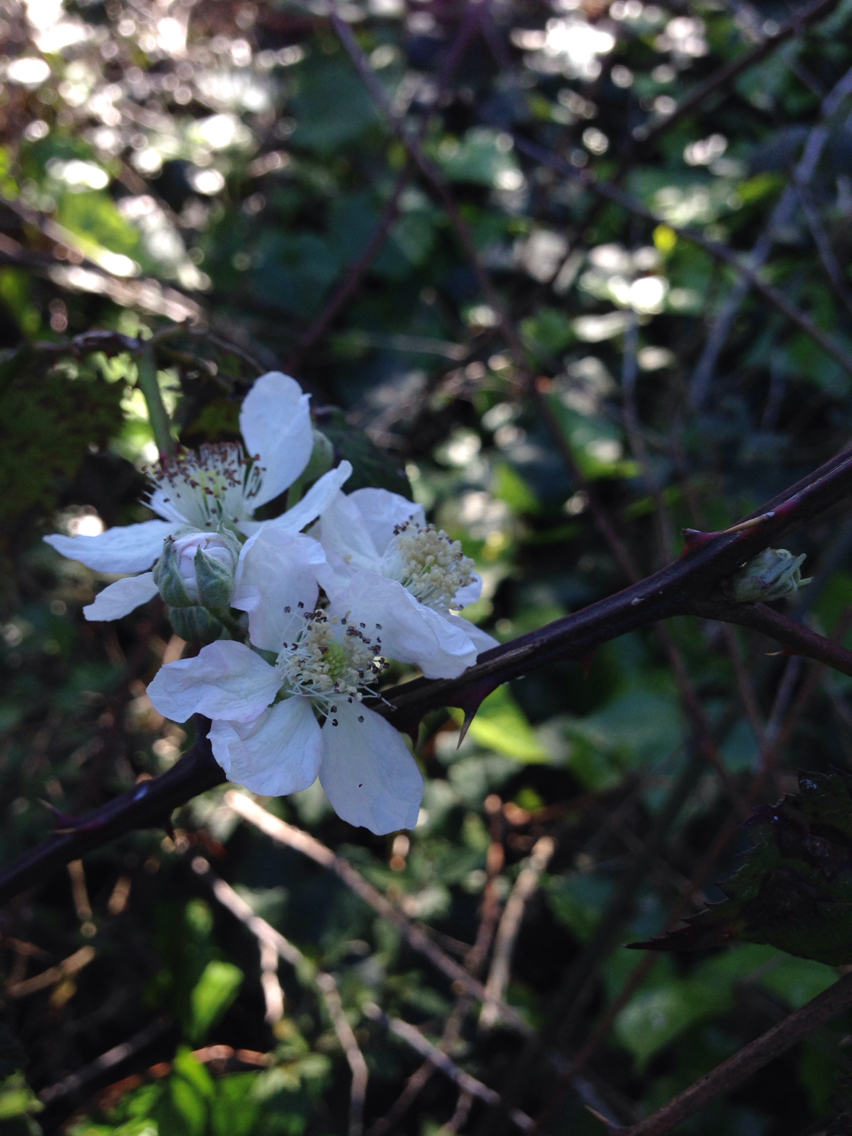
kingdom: Plantae
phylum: Tracheophyta
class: Magnoliopsida
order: Rosales
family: Rosaceae
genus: Rubus
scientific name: Rubus armeniacus
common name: Himalayan blackberry
